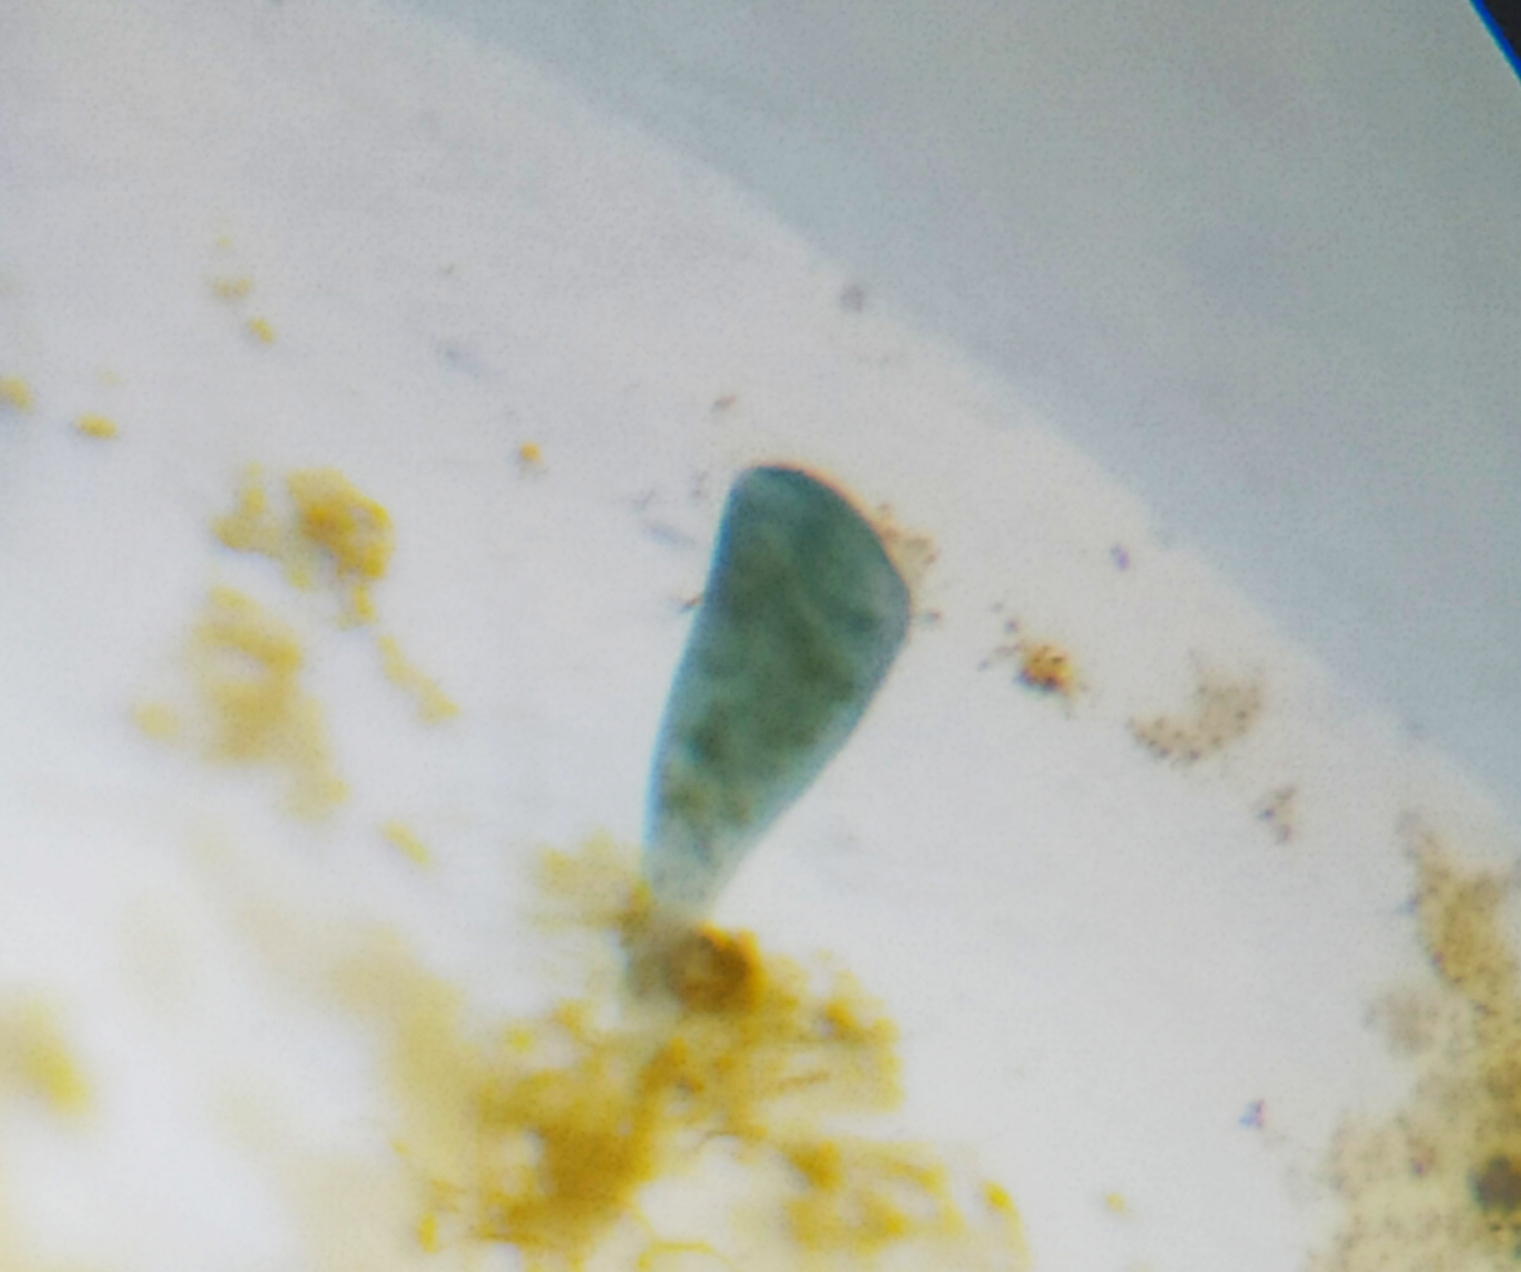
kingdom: Chromista
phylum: Ciliophora
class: Heterotrichea
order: Heterotrichida
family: Stentoridae
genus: Stentor
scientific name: Stentor coeruleus
